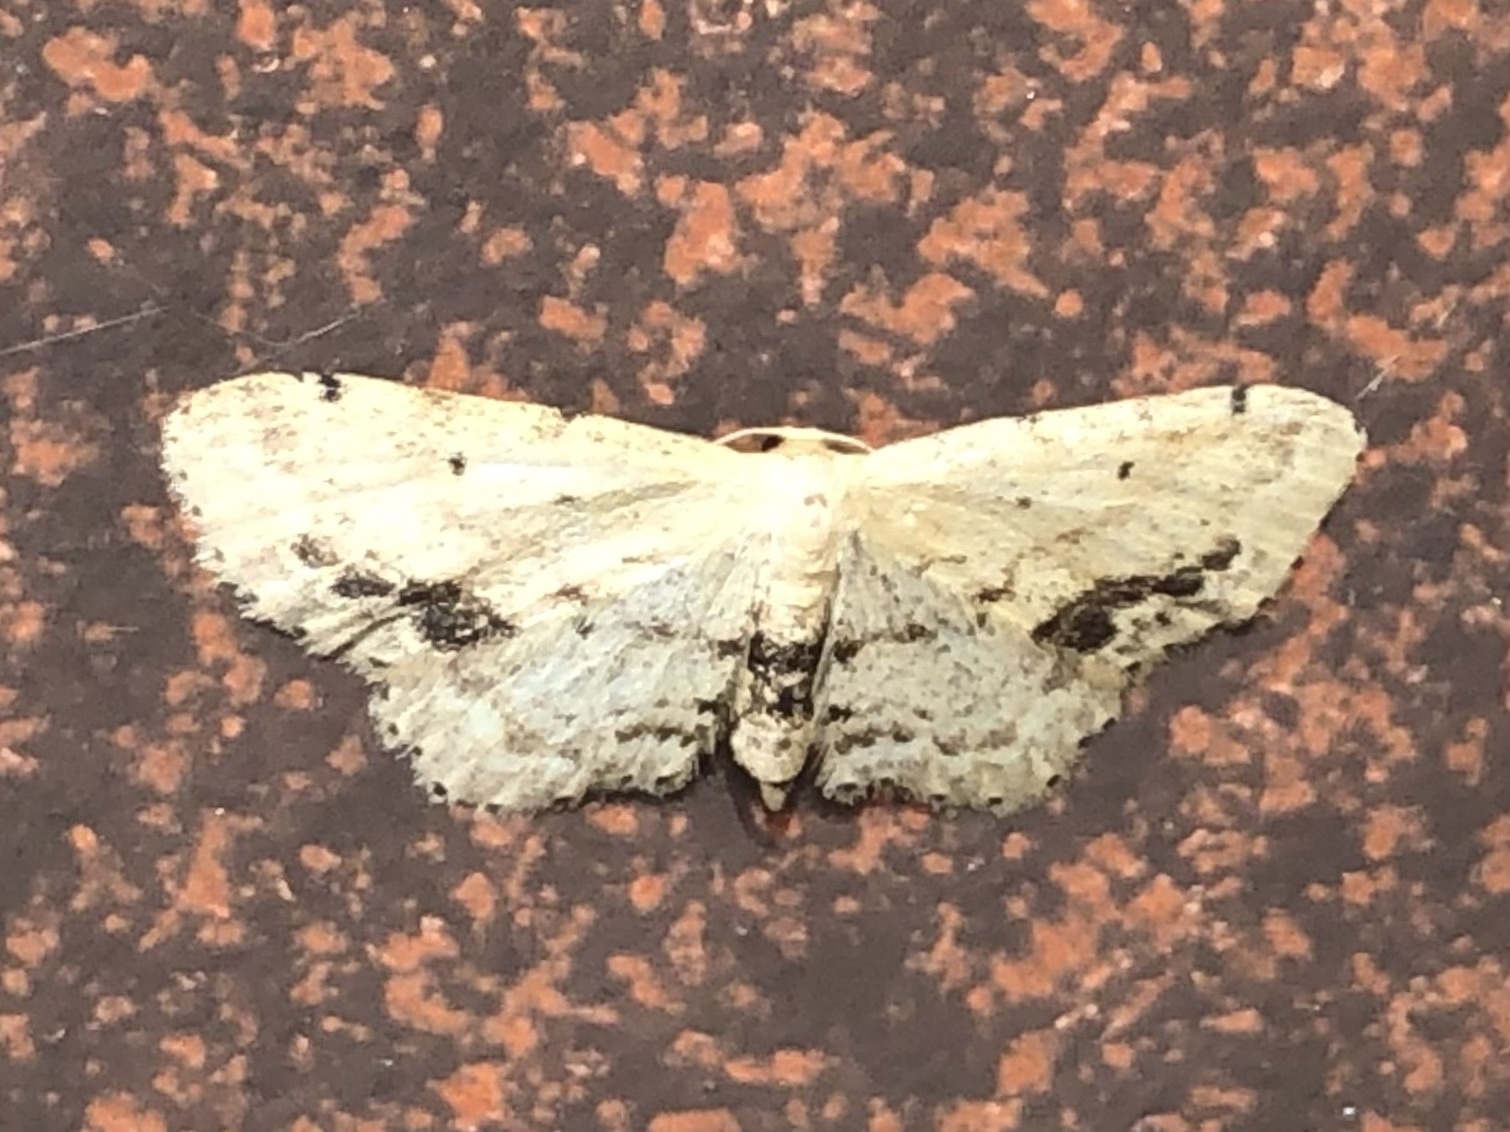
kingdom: Animalia
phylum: Arthropoda
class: Insecta
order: Lepidoptera
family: Geometridae
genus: Idaea
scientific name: Idaea dimidiata
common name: Single-dotted wave
